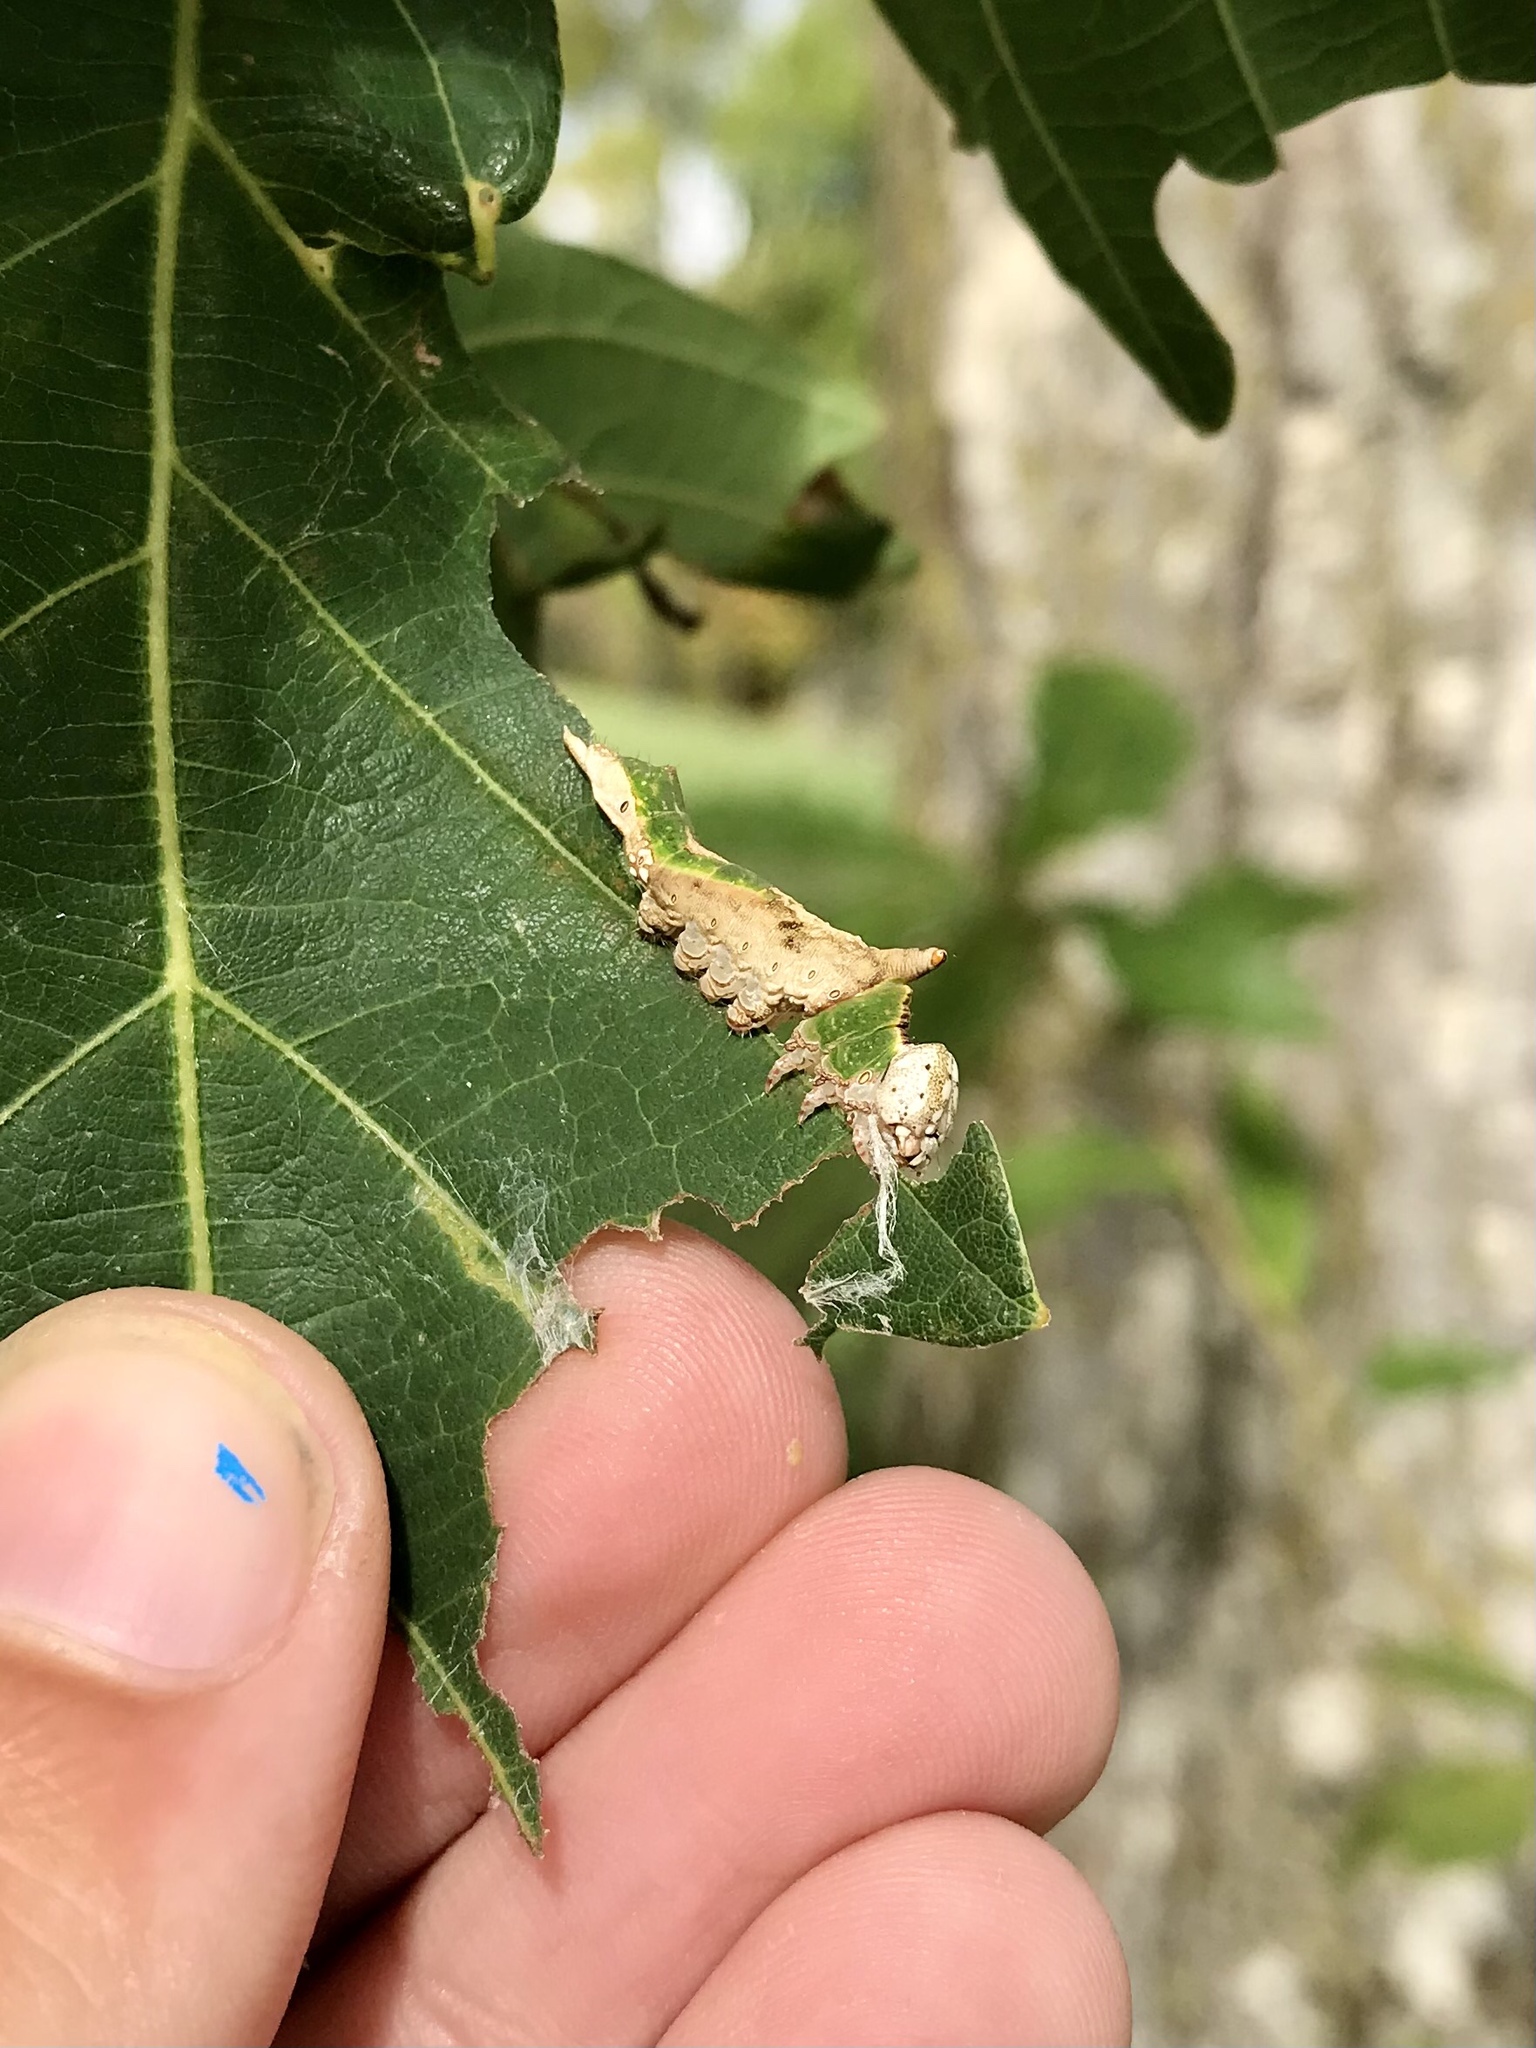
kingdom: Animalia
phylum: Arthropoda
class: Insecta
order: Lepidoptera
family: Notodontidae
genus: Oligocentria
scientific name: Oligocentria Ianassa lignicolor
